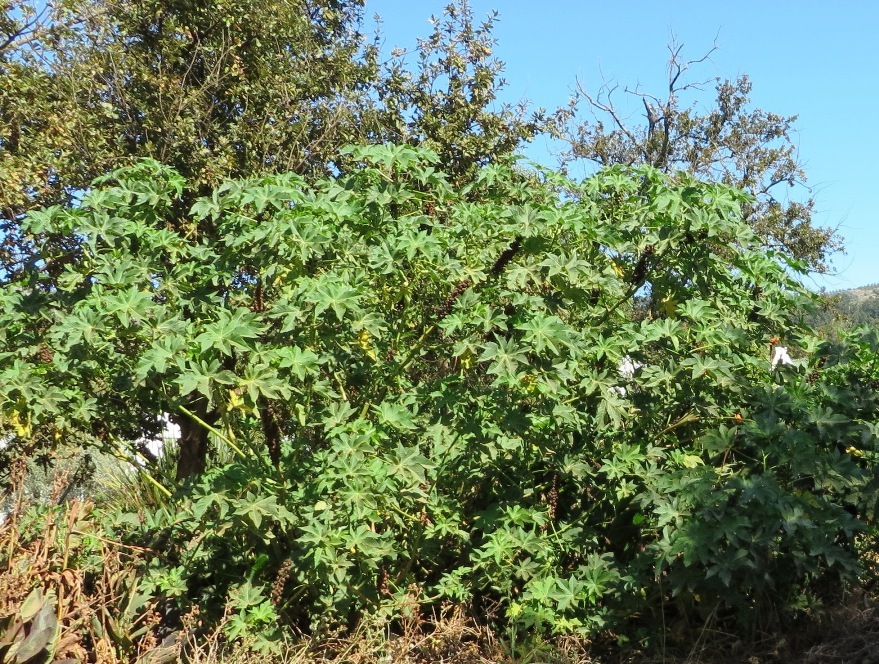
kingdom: Plantae
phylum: Tracheophyta
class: Magnoliopsida
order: Malpighiales
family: Euphorbiaceae
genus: Ricinus
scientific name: Ricinus communis
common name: Castor-oil-plant
